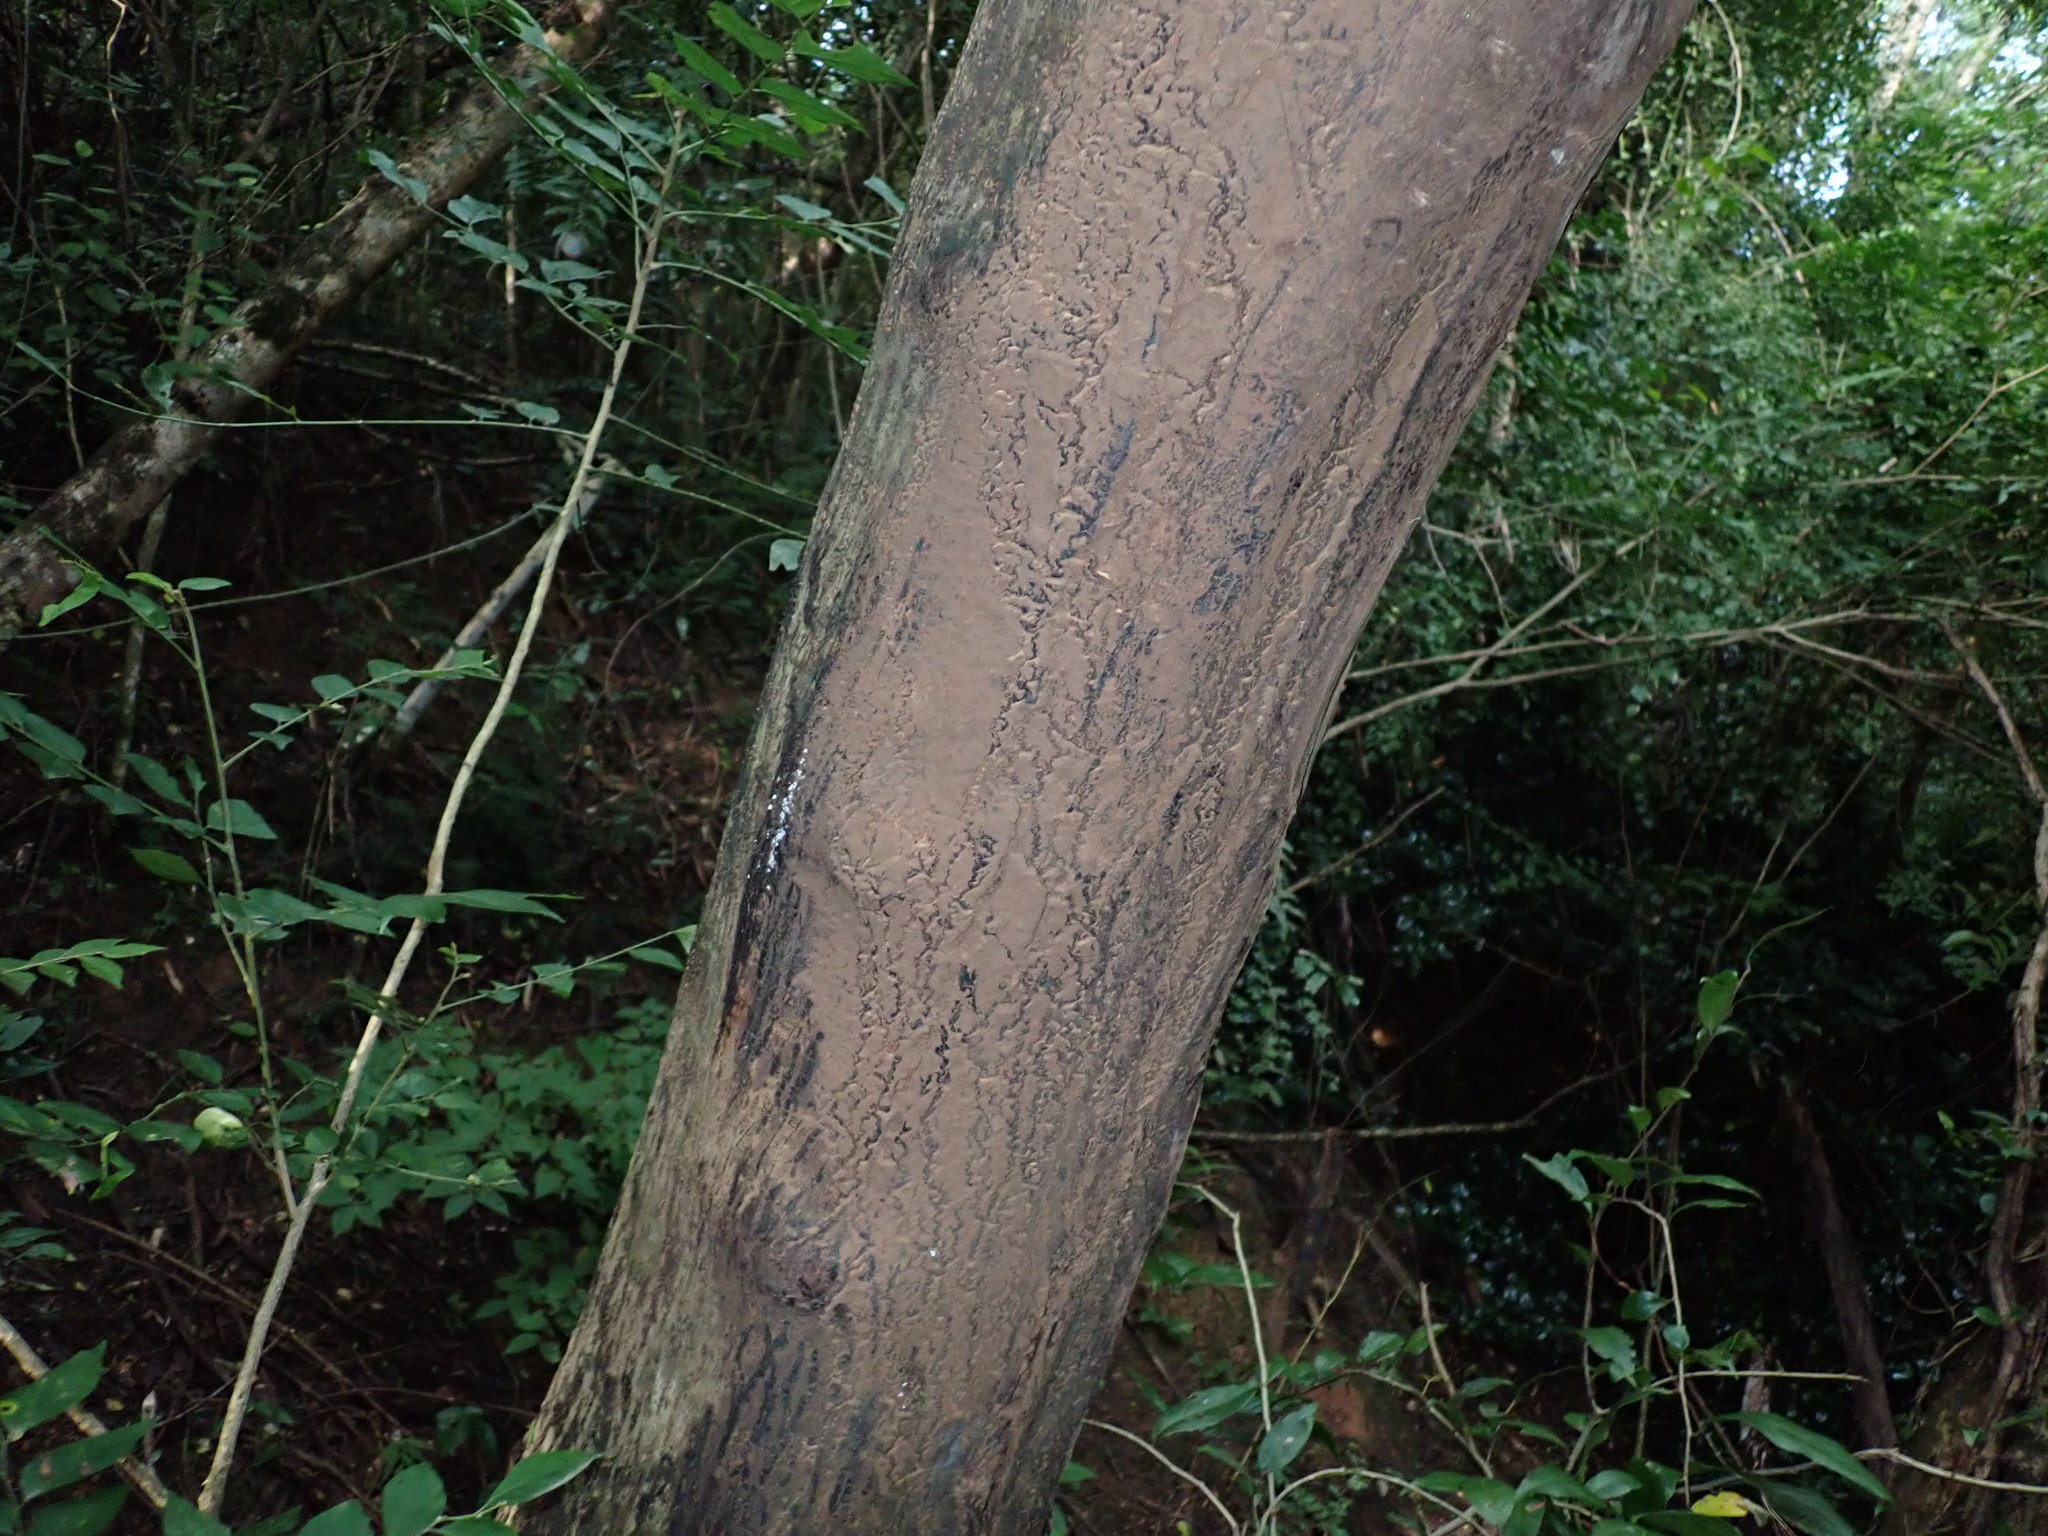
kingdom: Animalia
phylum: Chordata
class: Mammalia
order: Proboscidea
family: Elephantidae
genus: Elephas
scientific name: Elephas maximus
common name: Asian elephant
